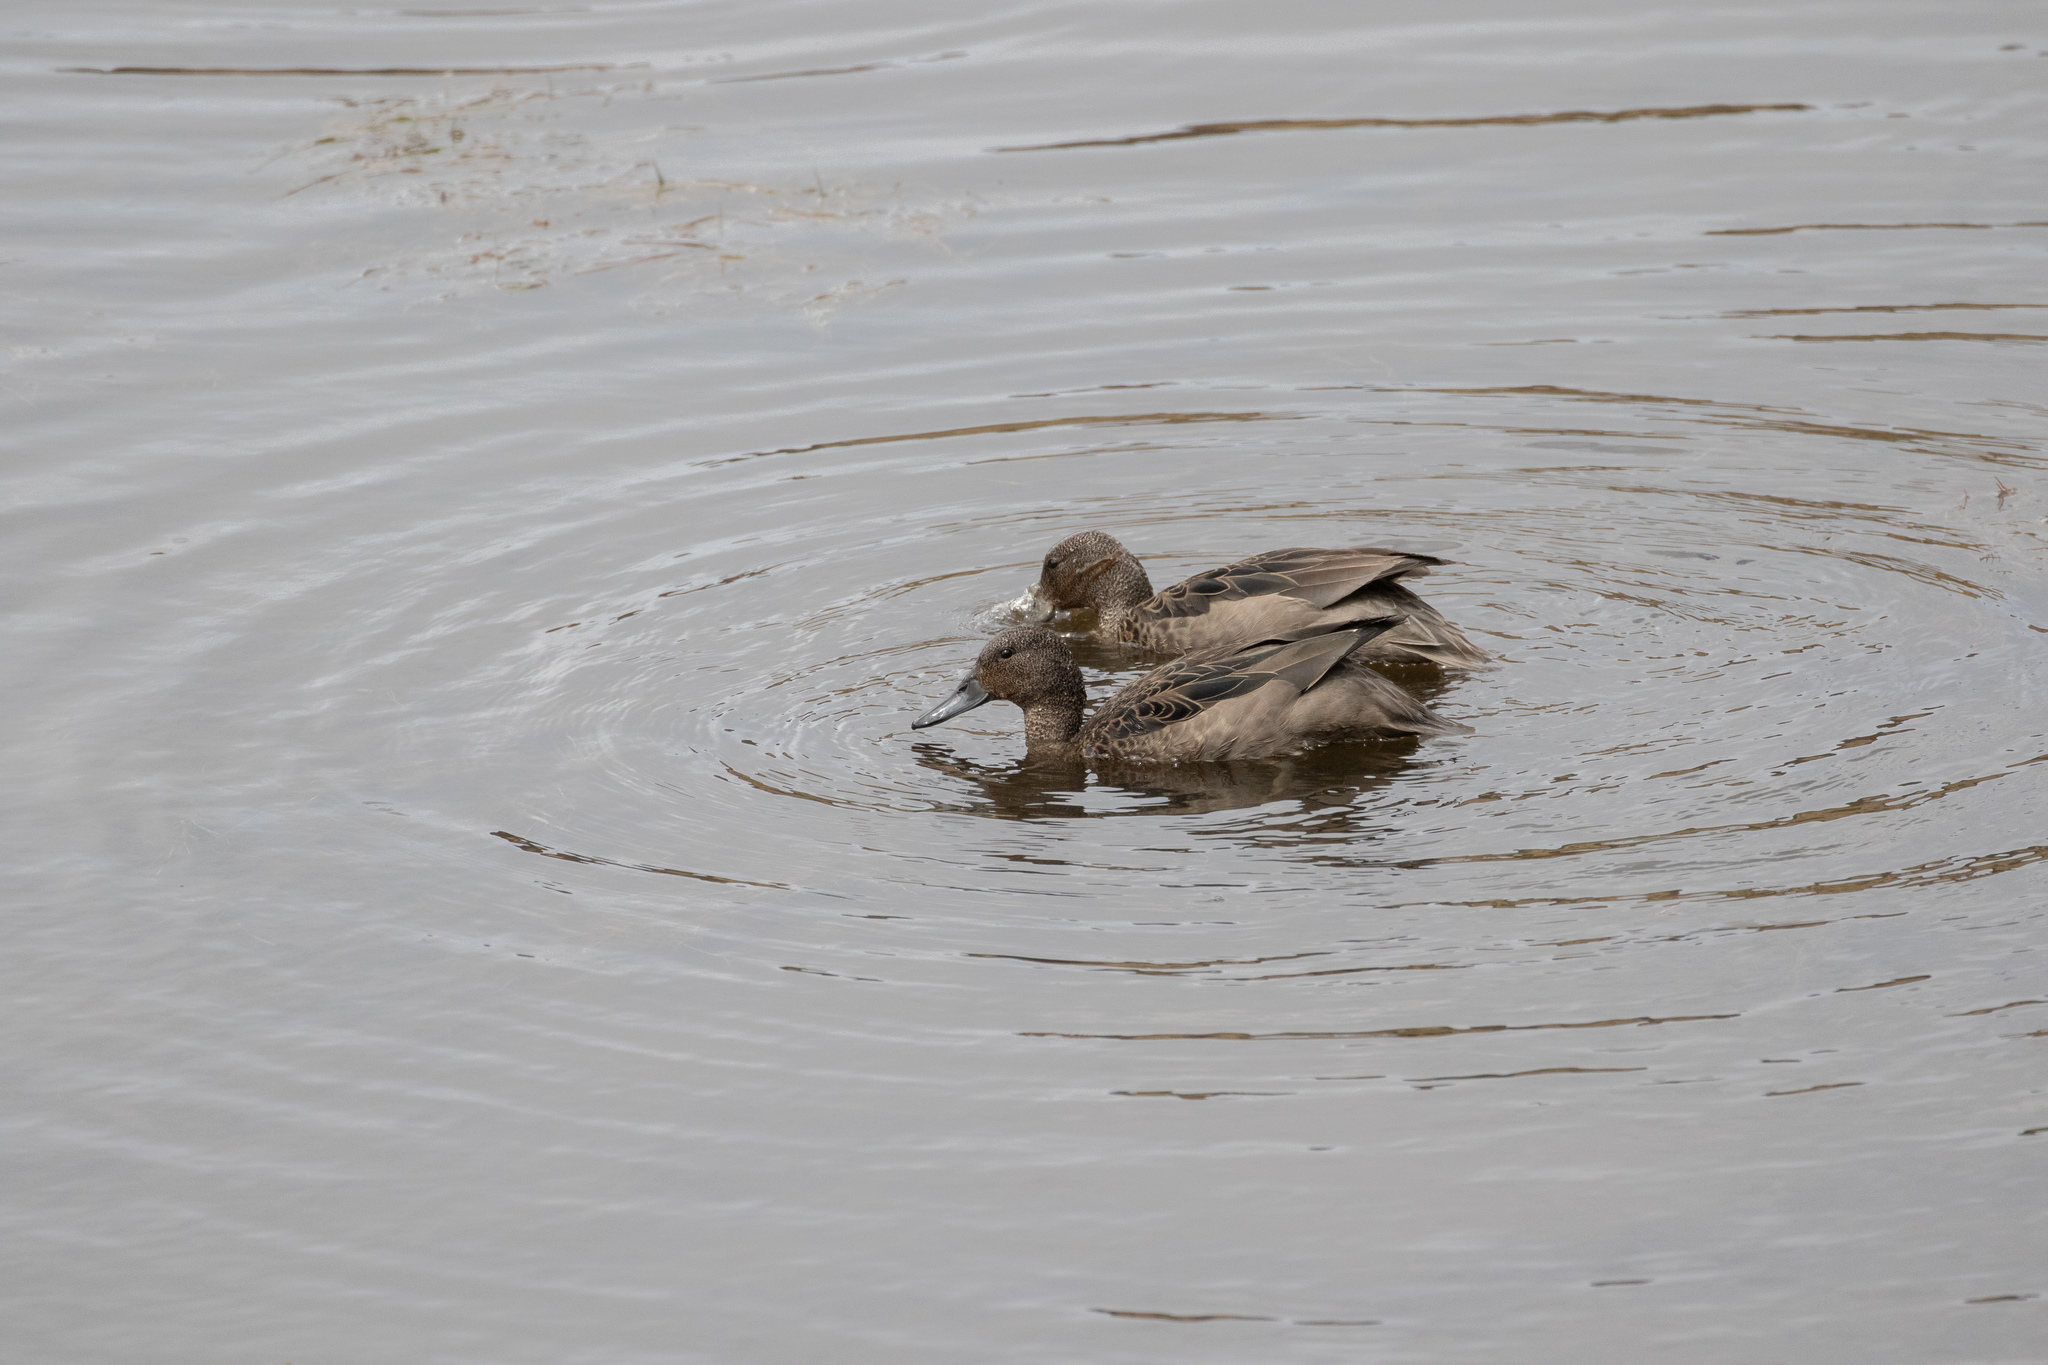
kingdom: Animalia
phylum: Chordata
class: Aves
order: Anseriformes
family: Anatidae
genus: Anas
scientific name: Anas andium
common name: Andean teal
